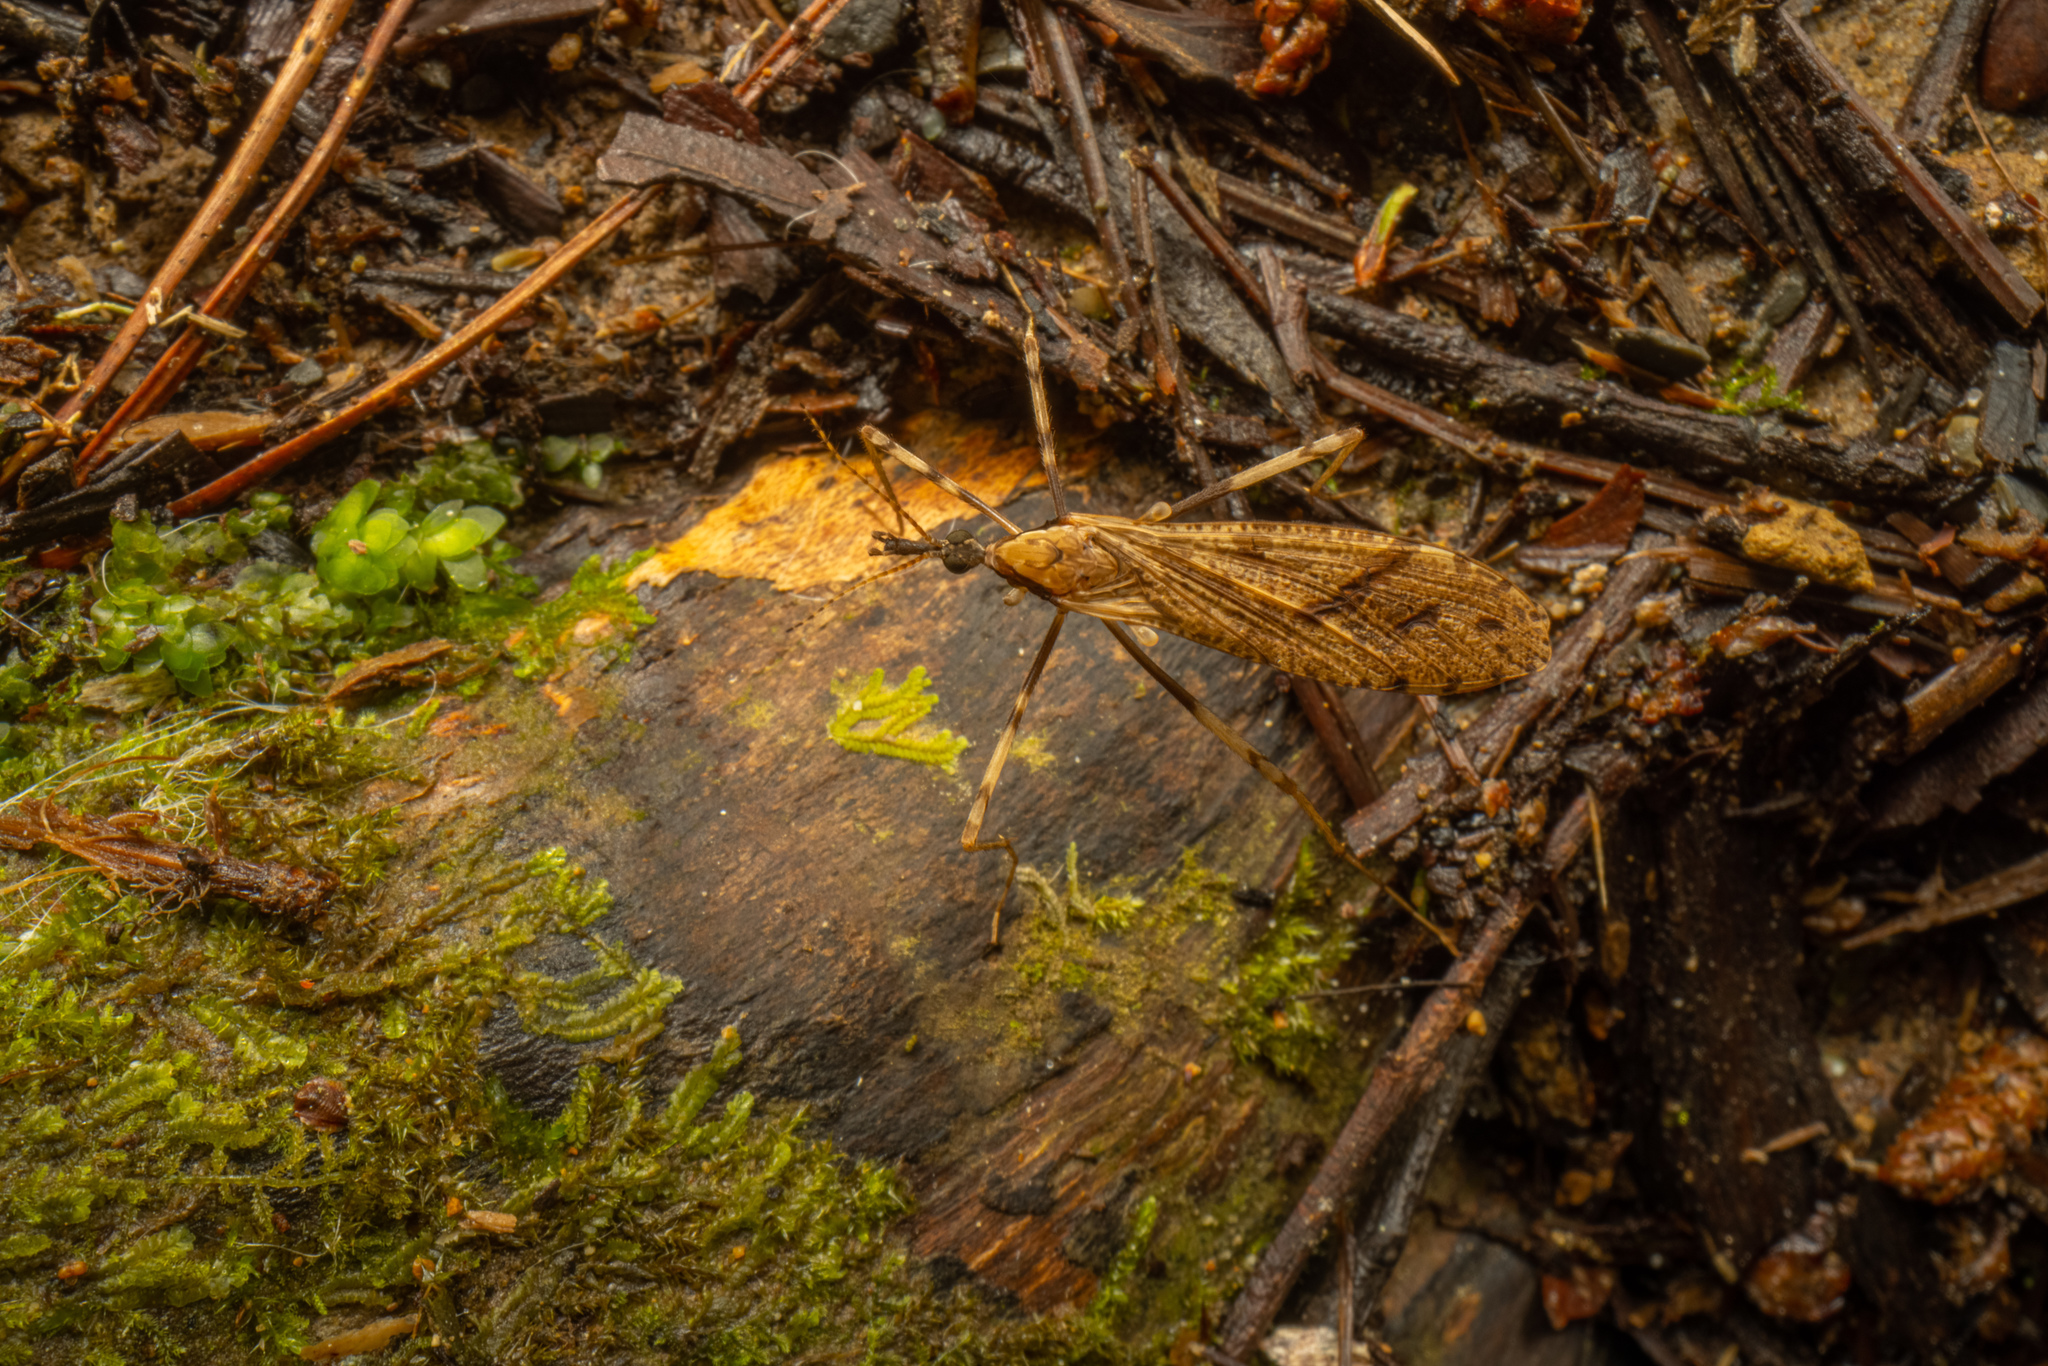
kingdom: Animalia
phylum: Arthropoda
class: Insecta
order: Diptera
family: Limoniidae
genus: Rhamphophila
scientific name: Rhamphophila sinistra
